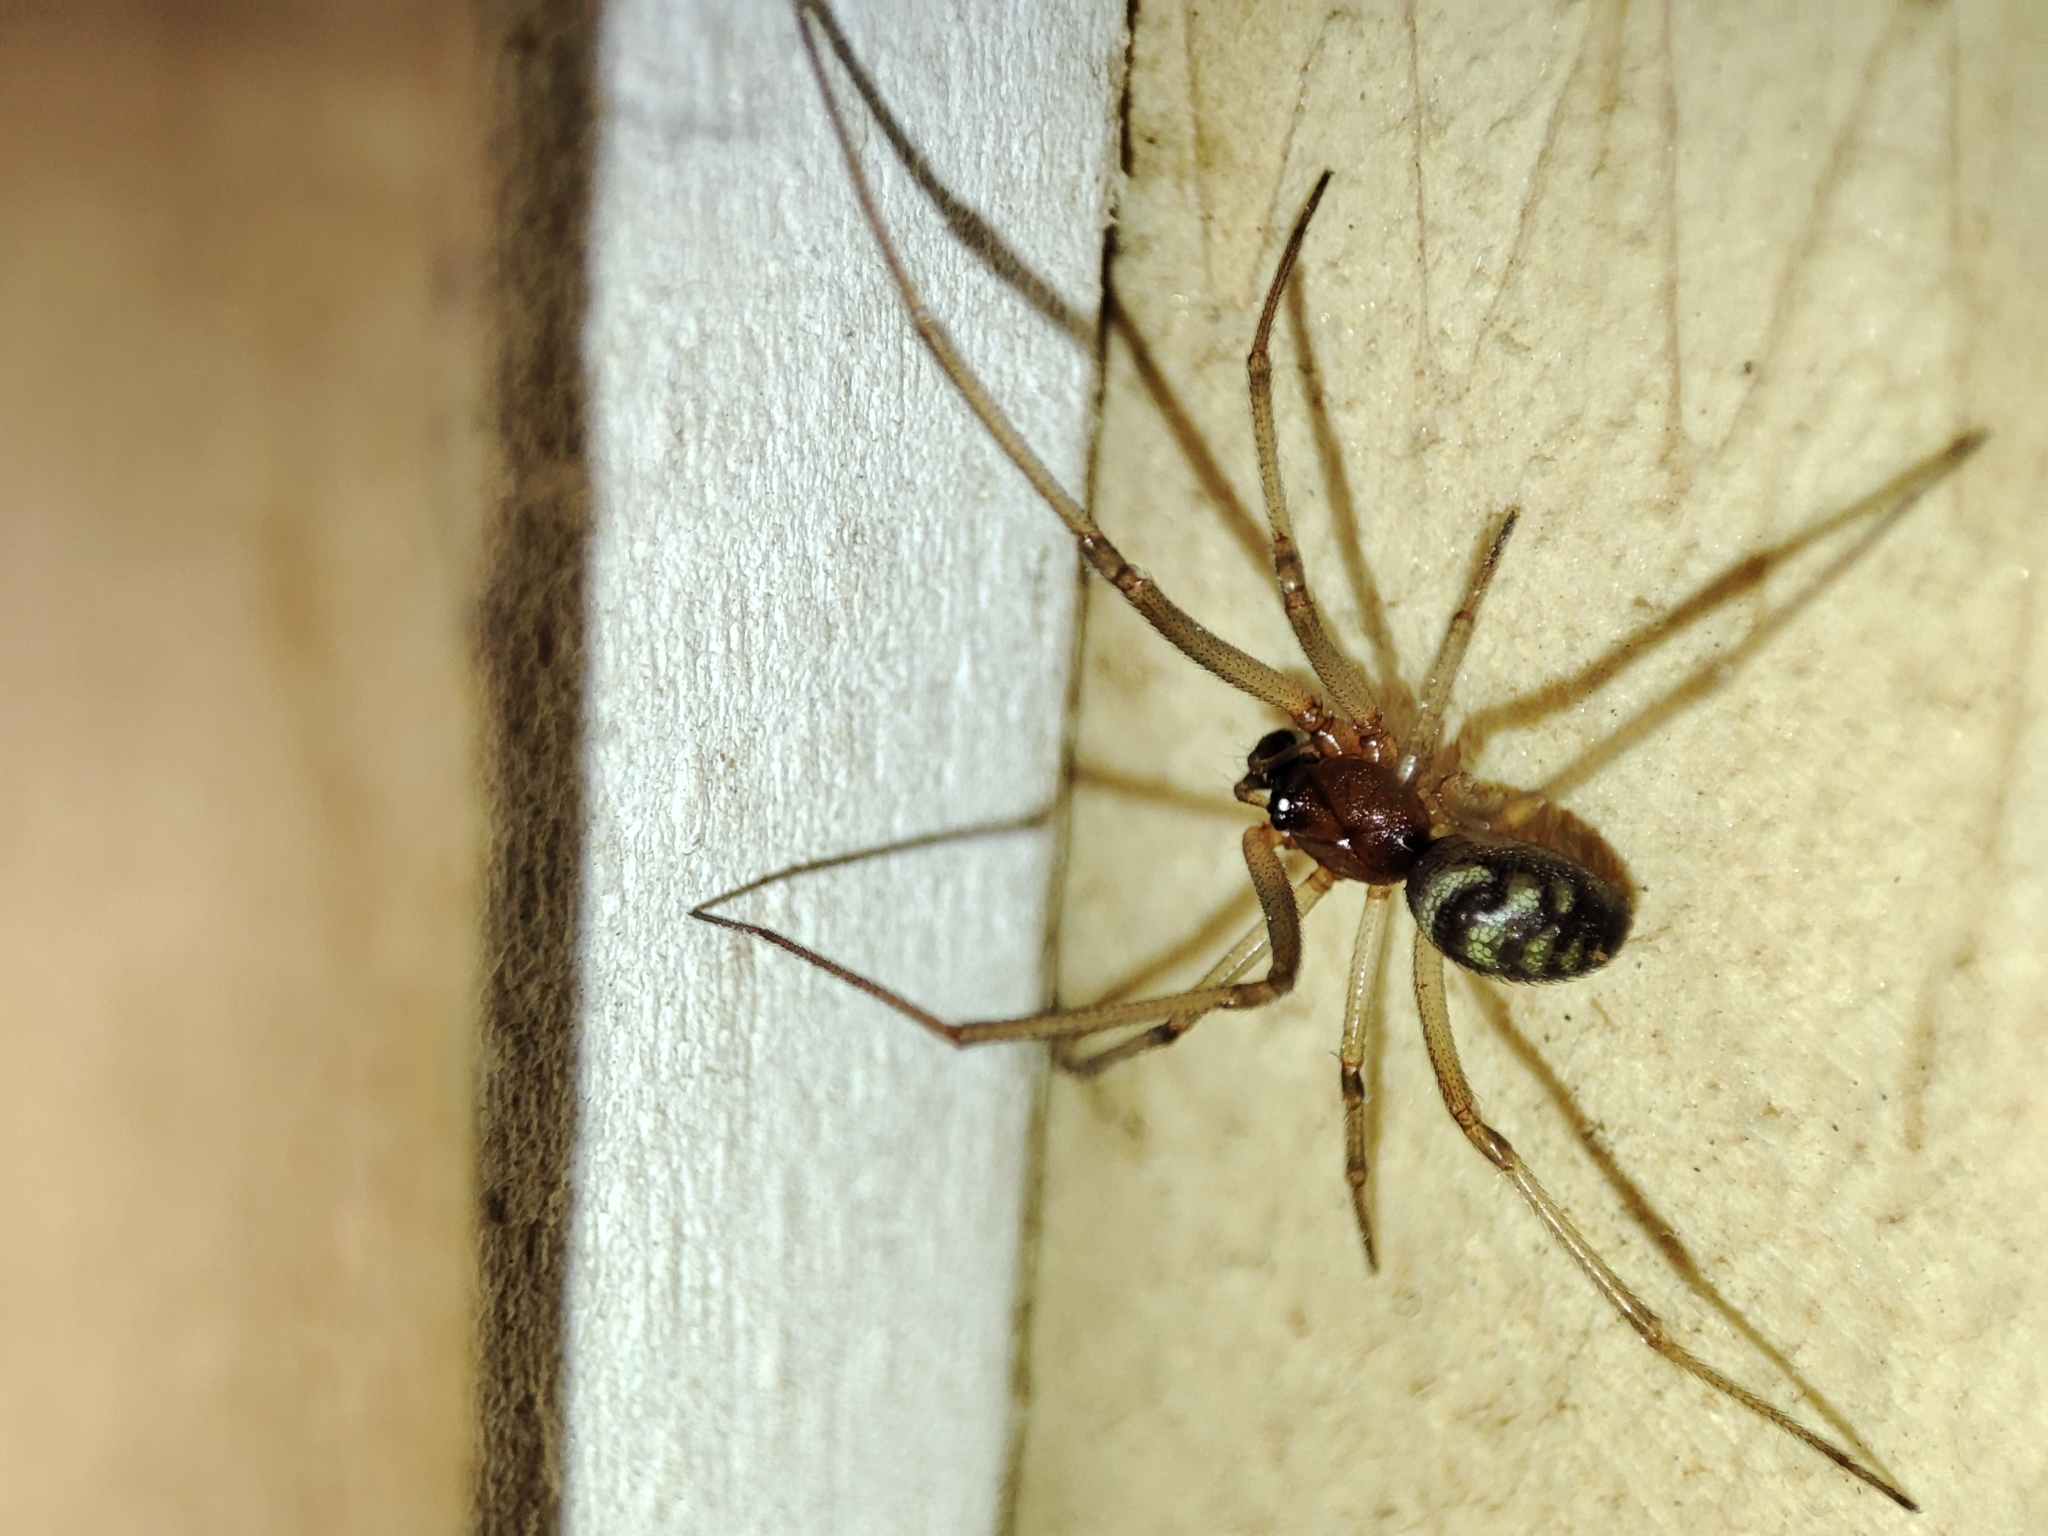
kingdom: Animalia
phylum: Arthropoda
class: Arachnida
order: Araneae
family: Theridiidae
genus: Steatoda
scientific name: Steatoda grossa
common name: False black widow
